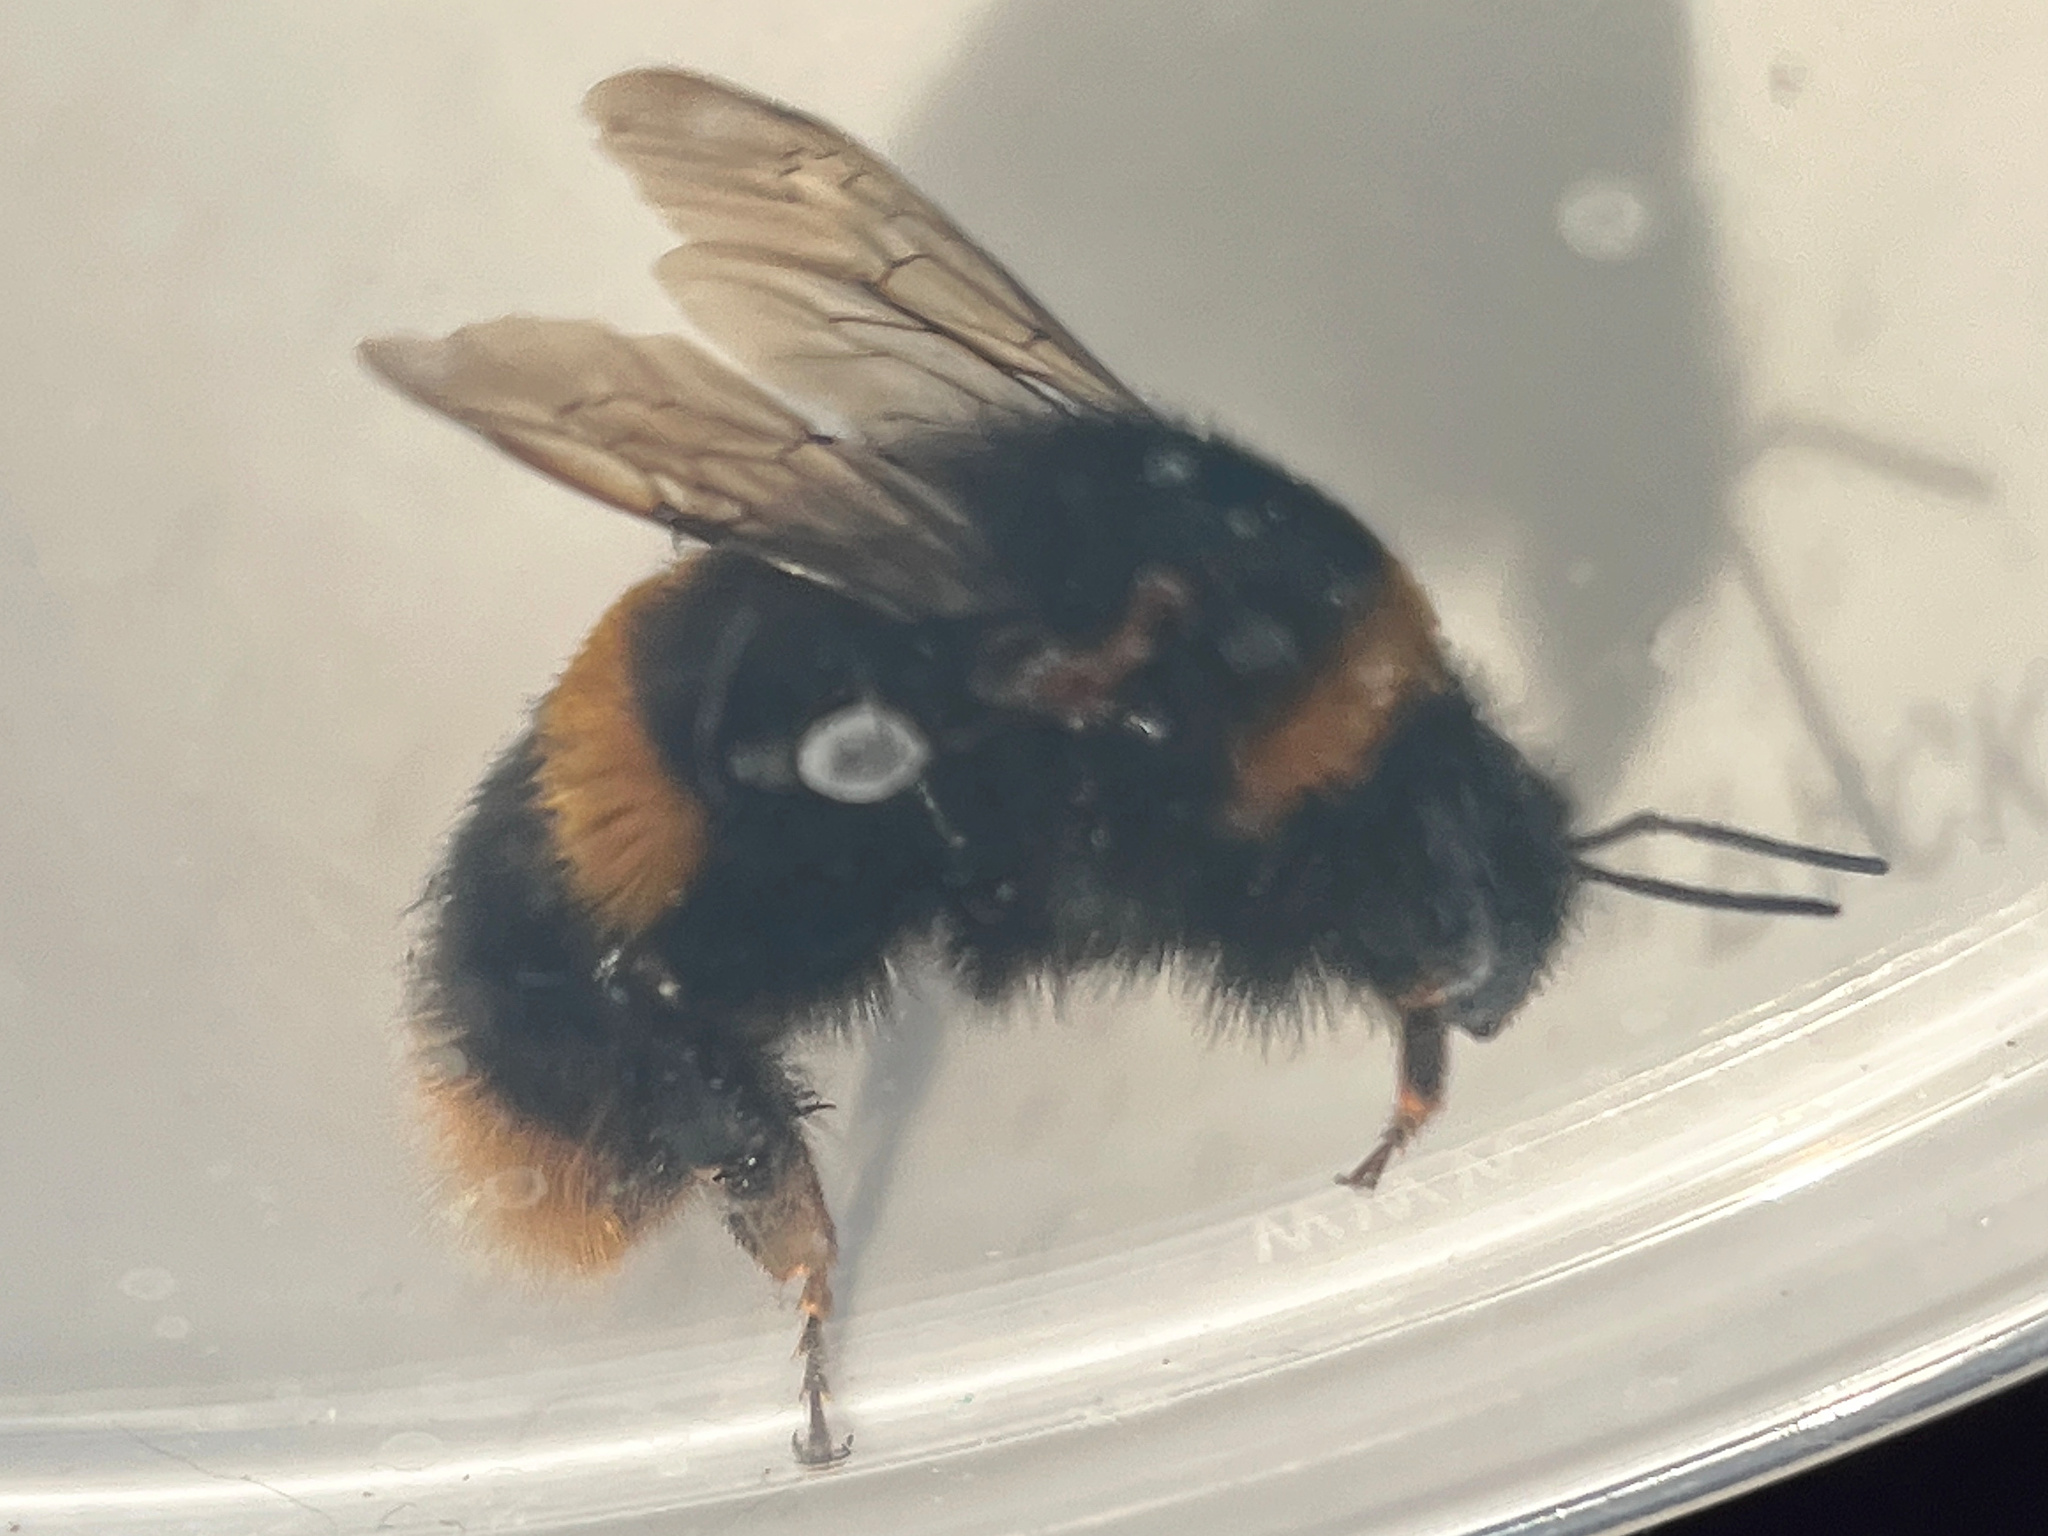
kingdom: Animalia
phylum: Arthropoda
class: Insecta
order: Hymenoptera
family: Apidae
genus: Bombus
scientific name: Bombus terrestris
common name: Buff-tailed bumblebee
